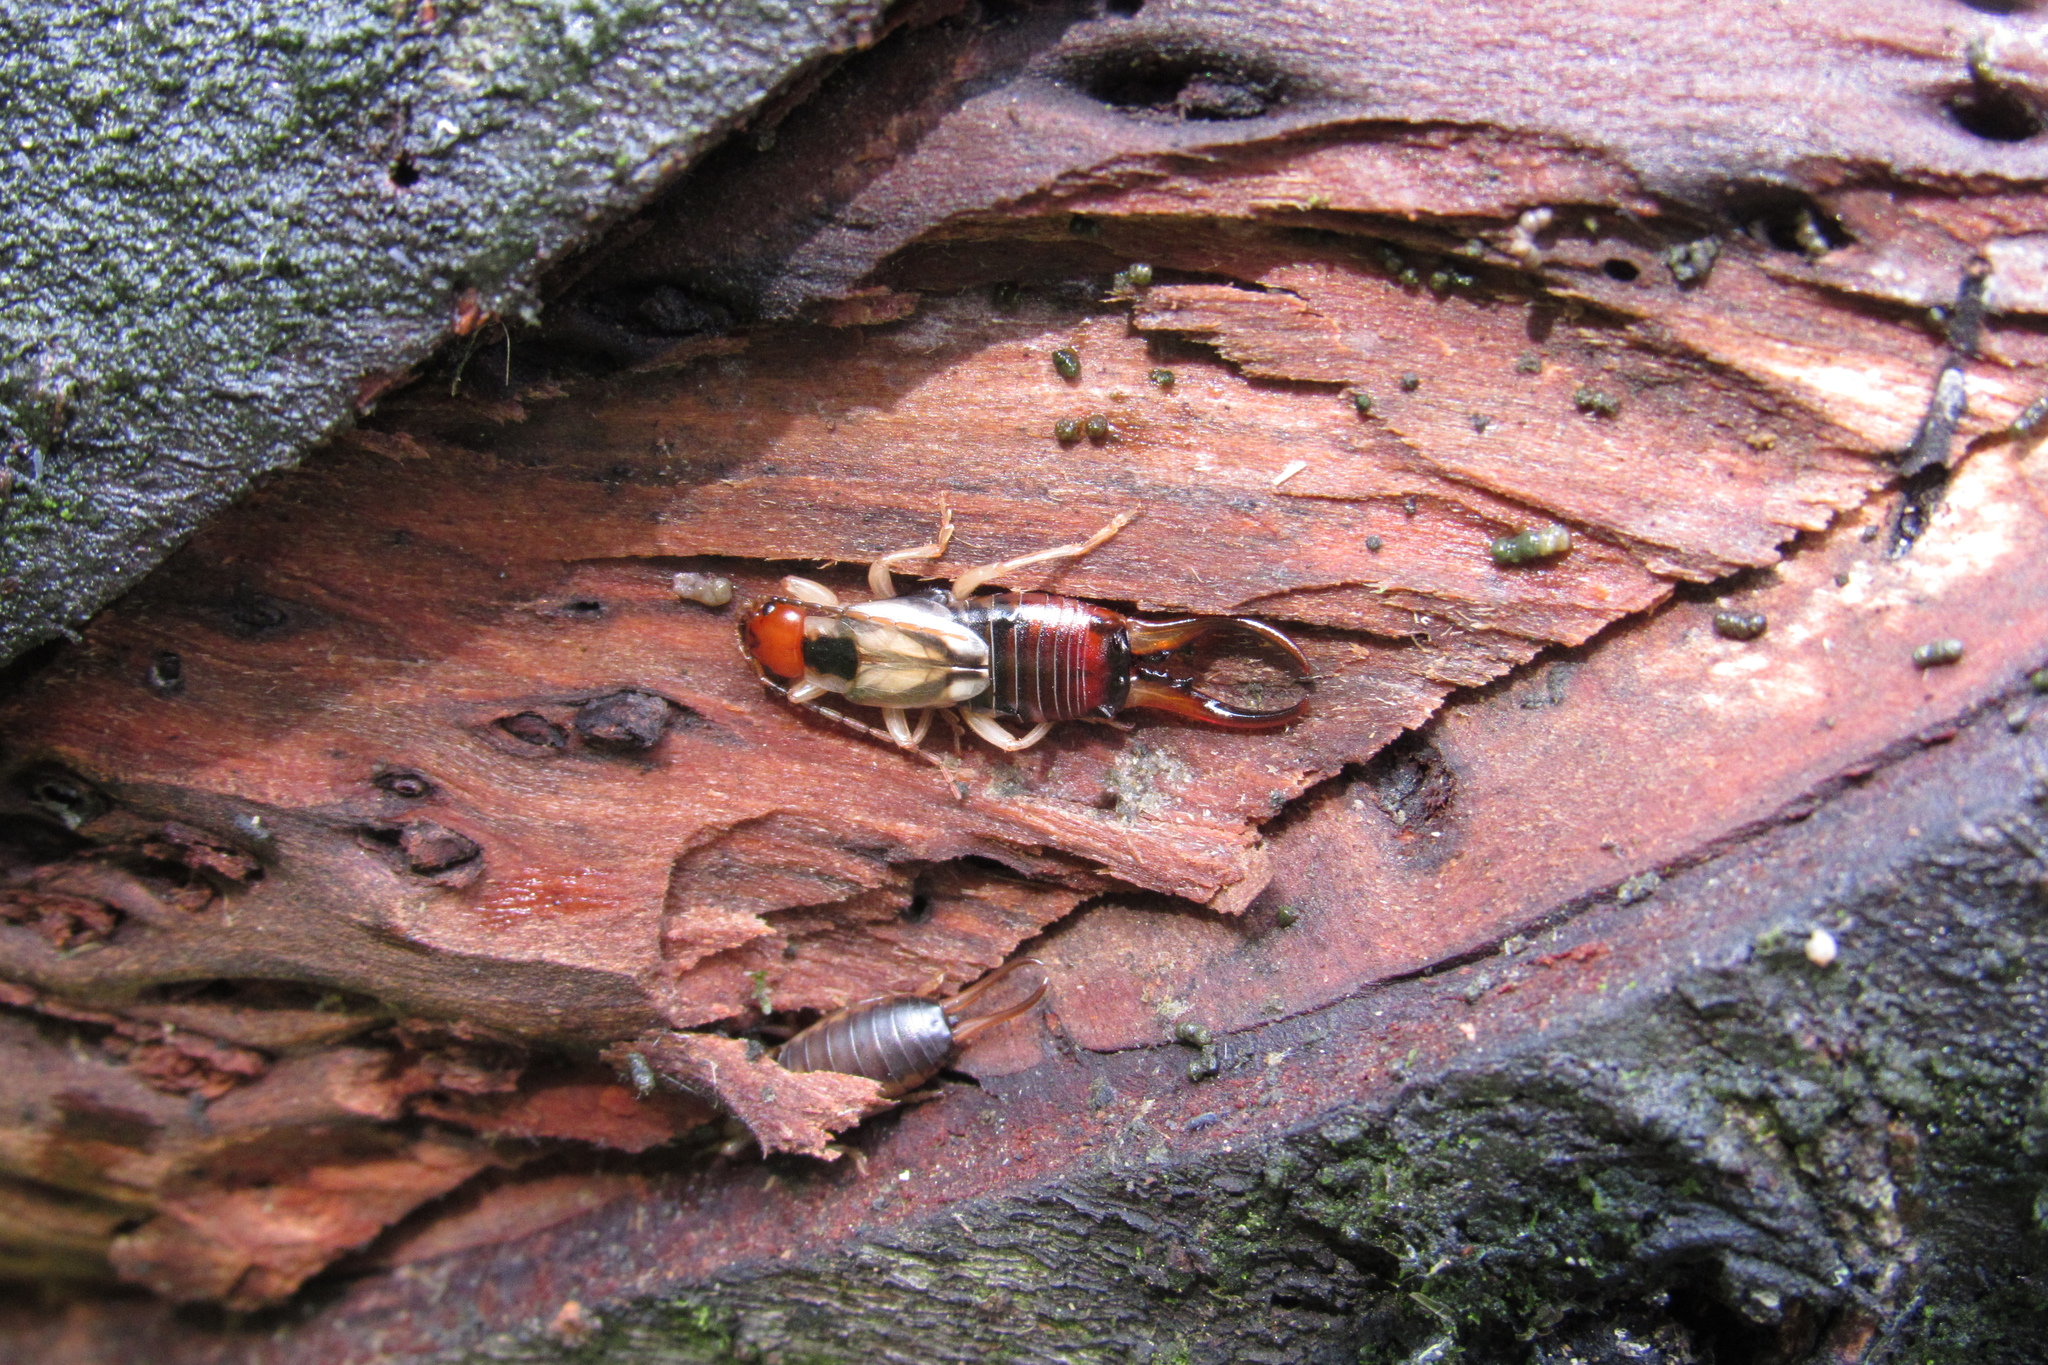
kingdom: Animalia
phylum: Arthropoda
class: Insecta
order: Dermaptera
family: Forficulidae
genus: Forficula
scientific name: Forficula
